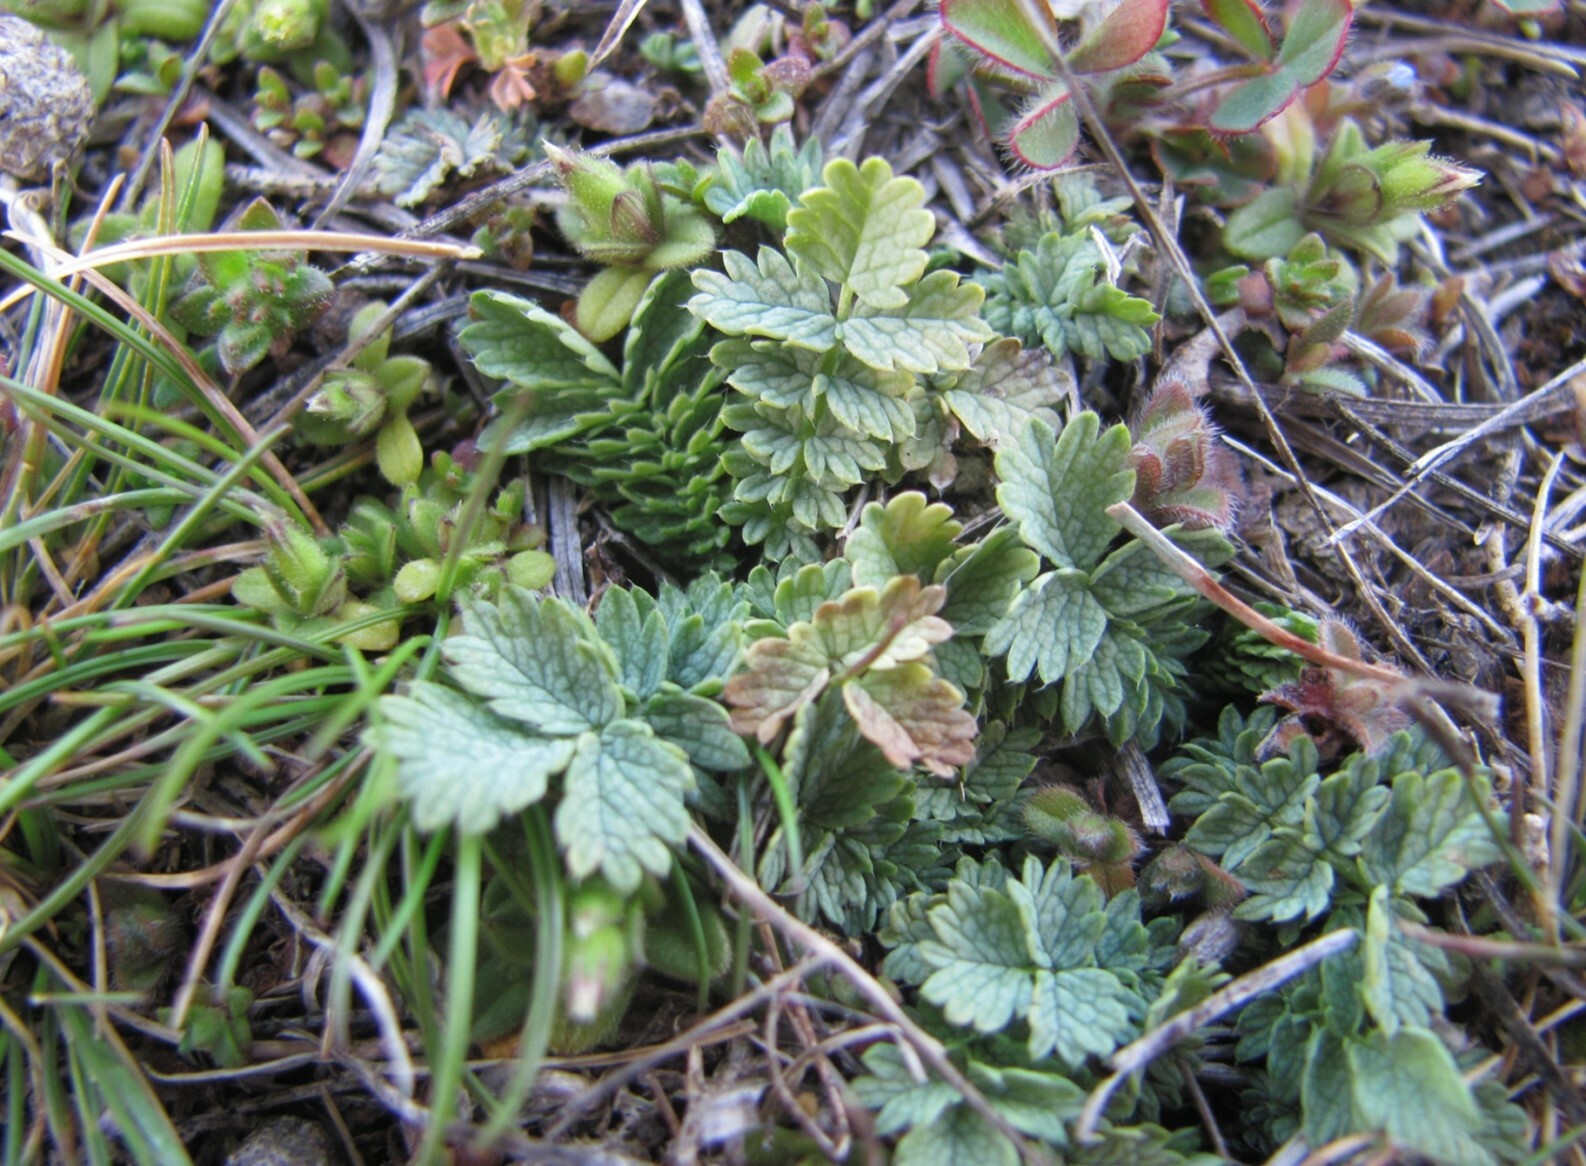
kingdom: Plantae
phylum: Tracheophyta
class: Magnoliopsida
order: Rosales
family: Rosaceae
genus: Acaena
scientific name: Acaena buchananii
